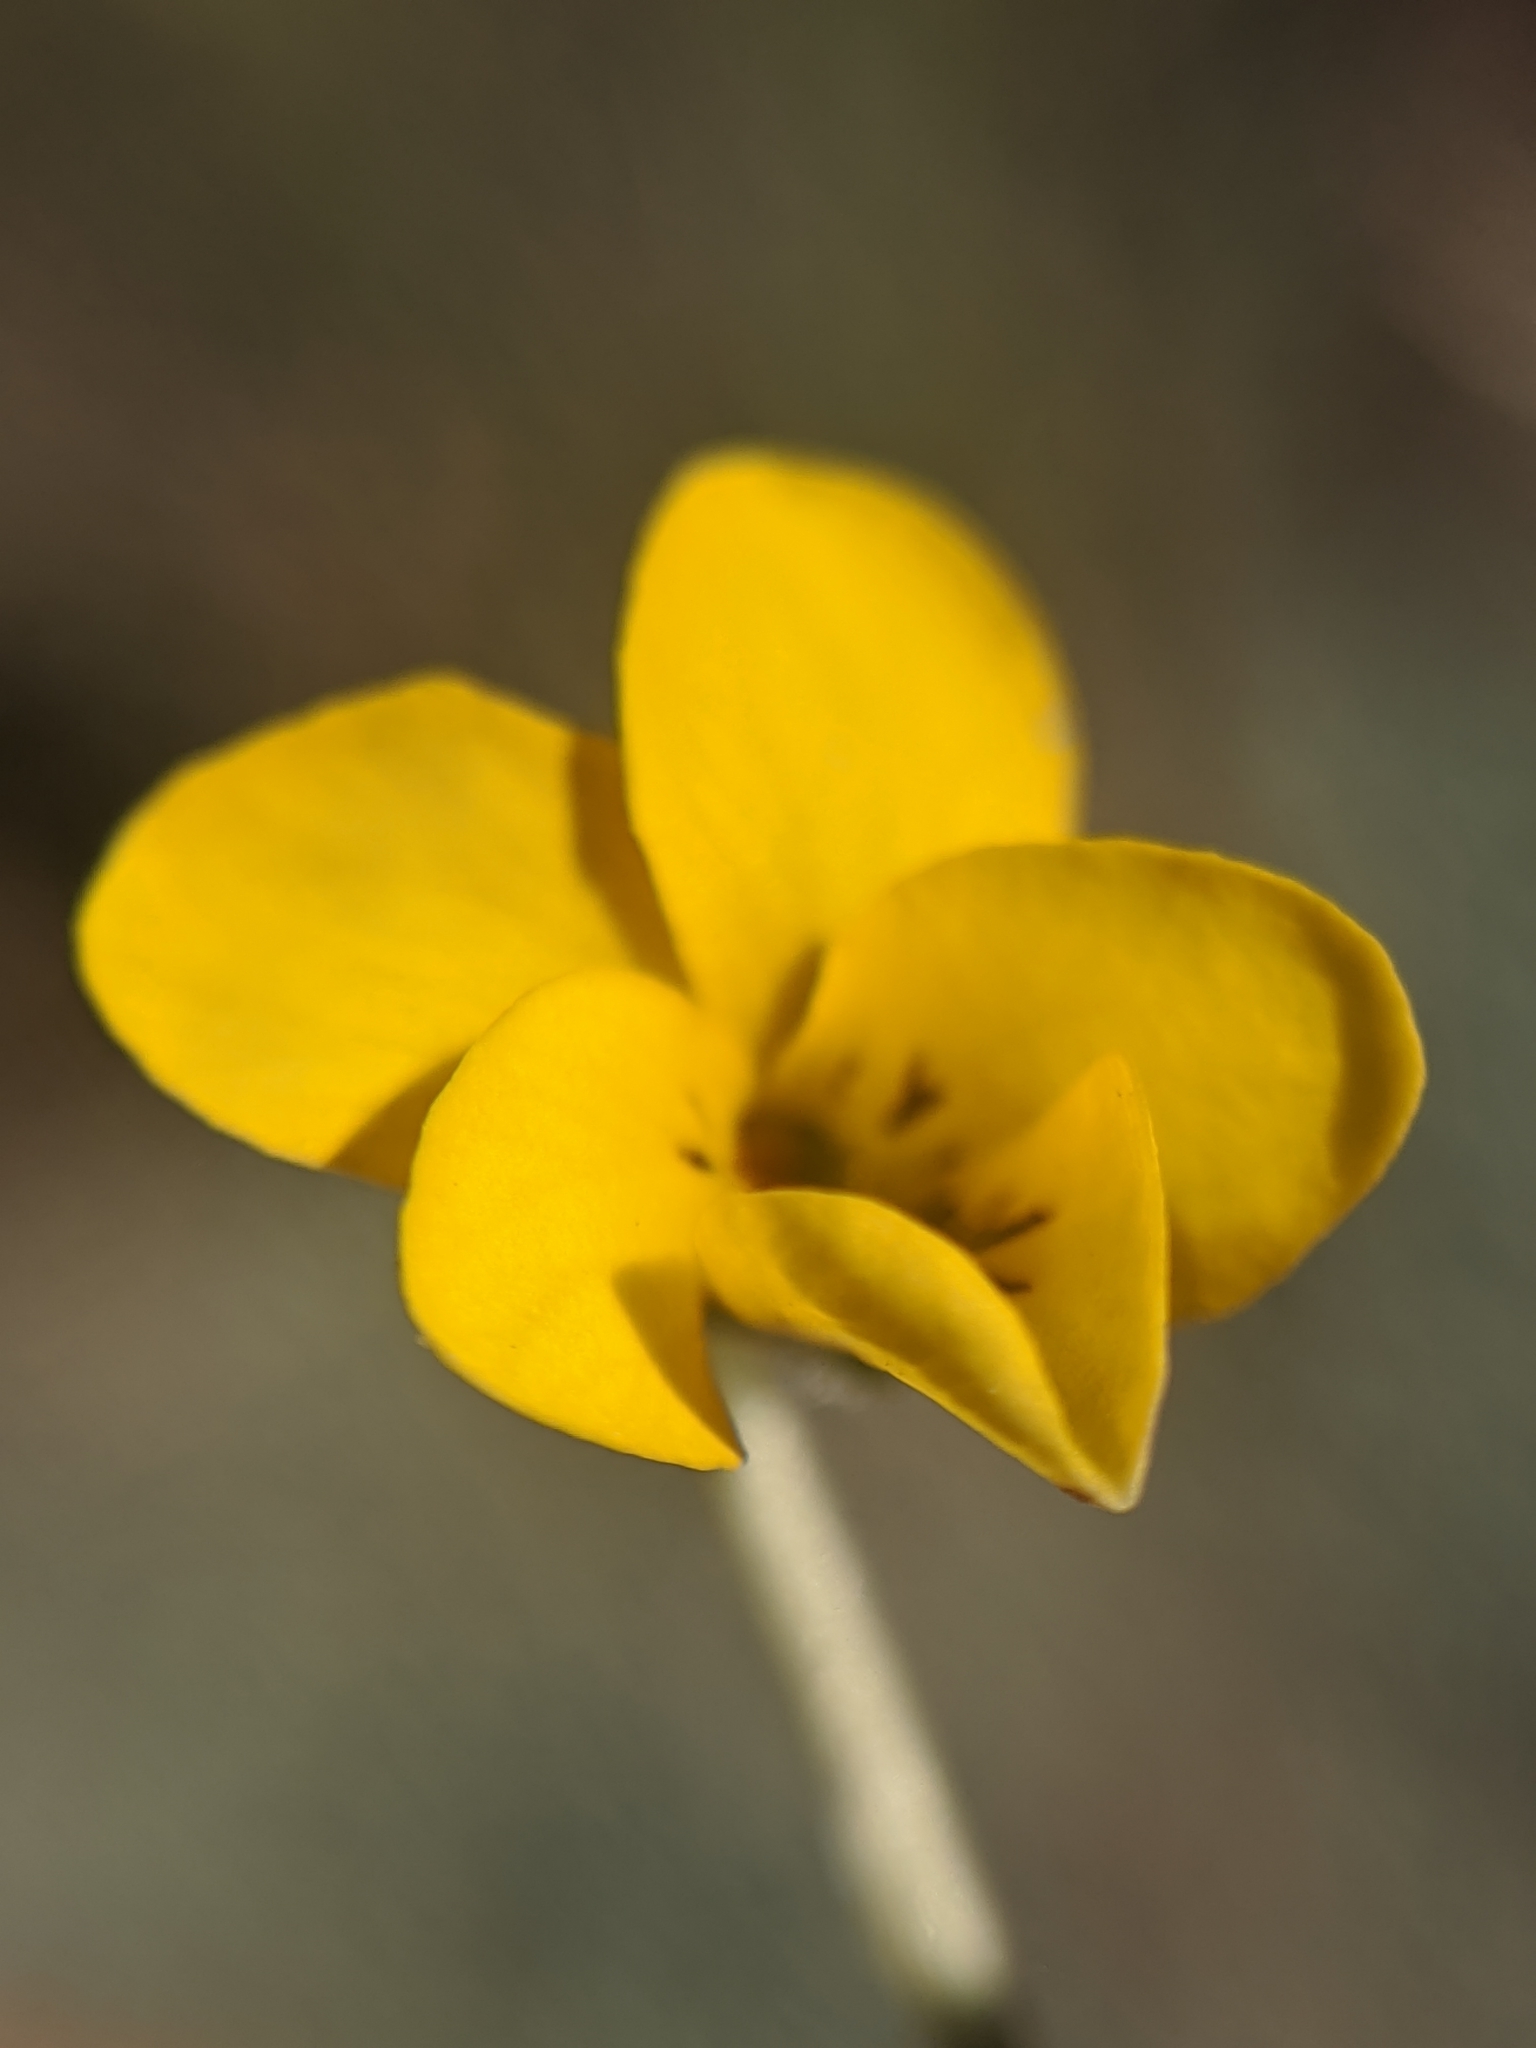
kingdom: Plantae
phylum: Tracheophyta
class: Magnoliopsida
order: Malpighiales
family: Violaceae
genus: Viola
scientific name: Viola douglasii
